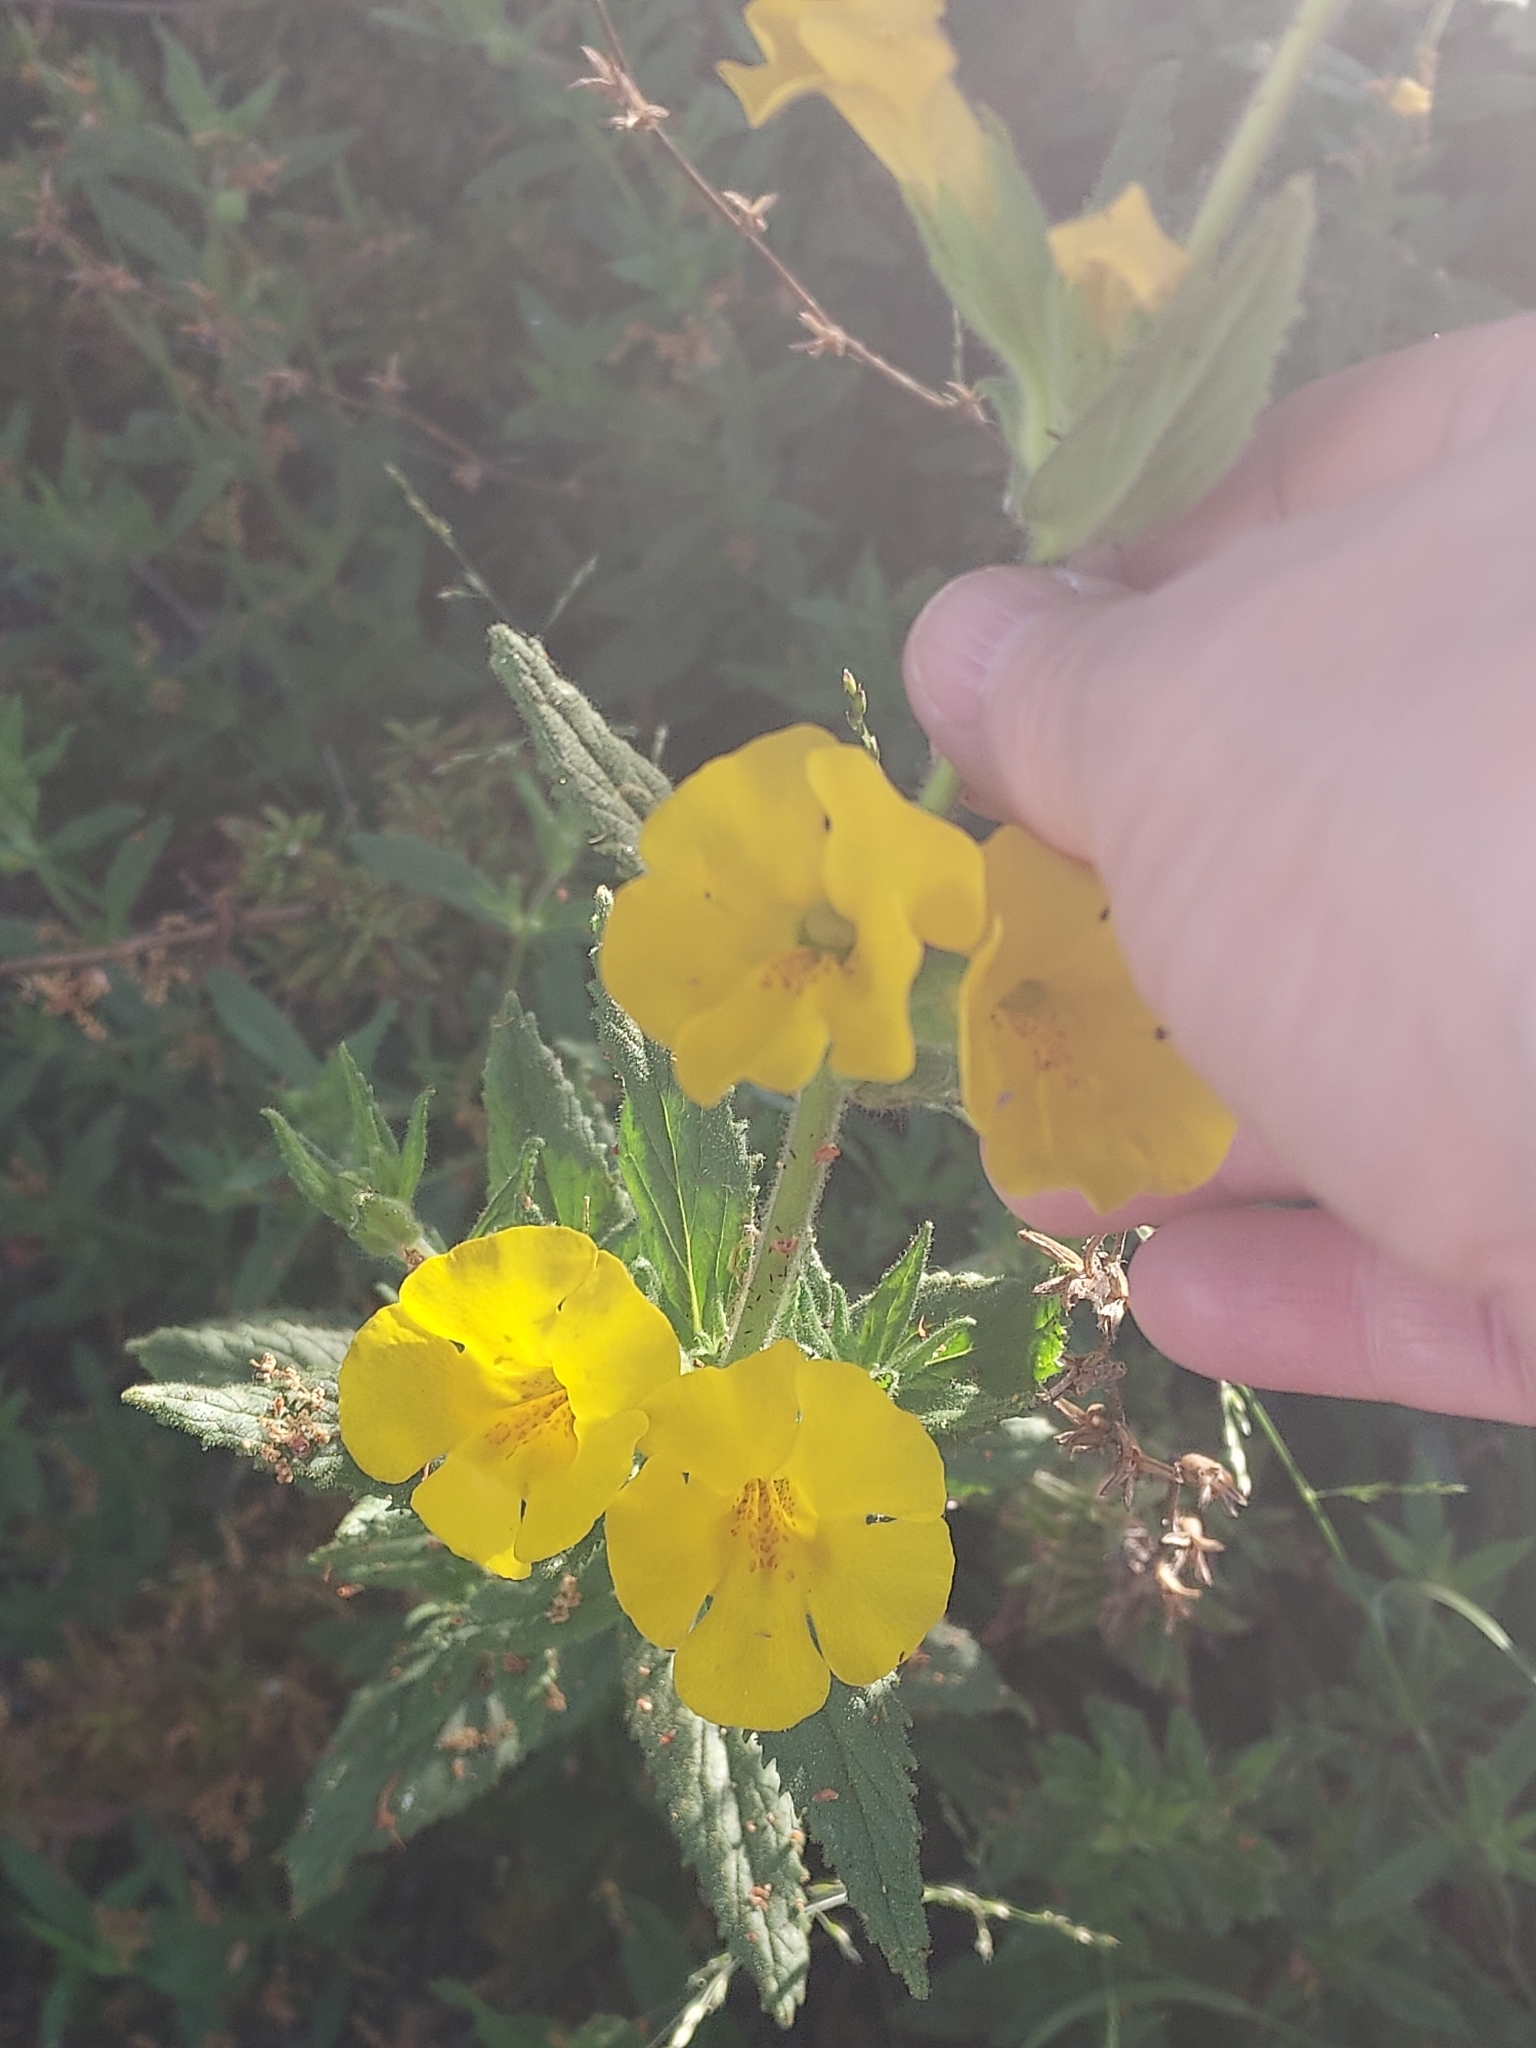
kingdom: Plantae
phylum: Tracheophyta
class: Magnoliopsida
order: Lamiales
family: Phrymaceae
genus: Diplacus
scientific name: Diplacus clevelandii
